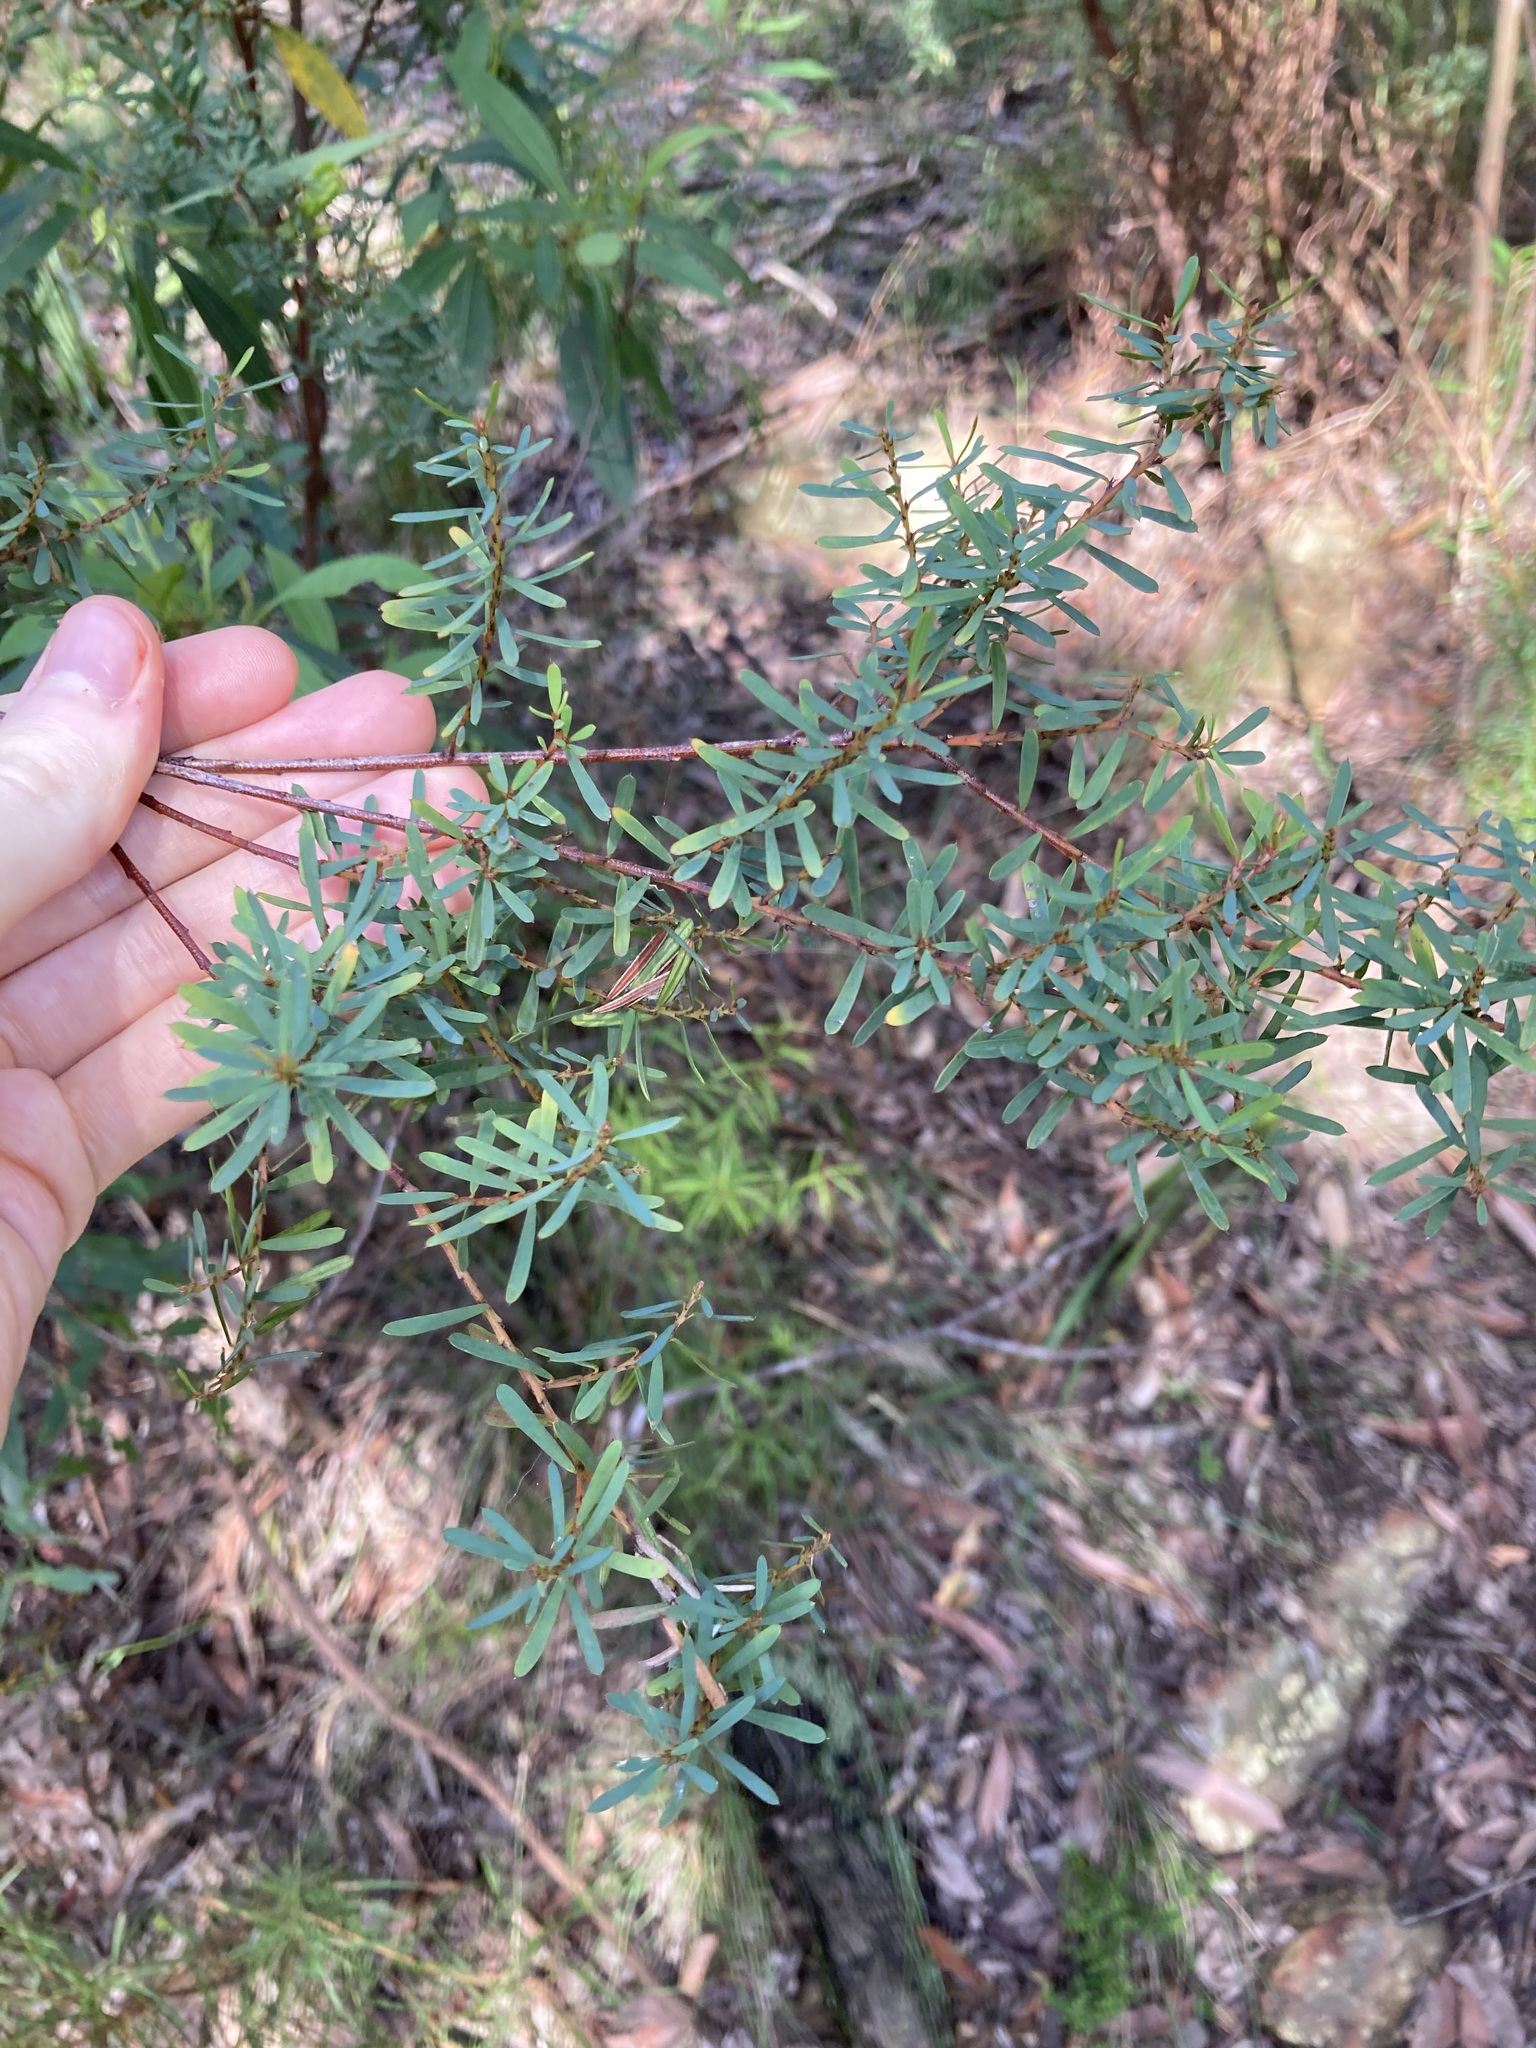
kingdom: Plantae
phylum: Tracheophyta
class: Magnoliopsida
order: Fabales
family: Fabaceae
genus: Pultenaea
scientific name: Pultenaea flexilis
